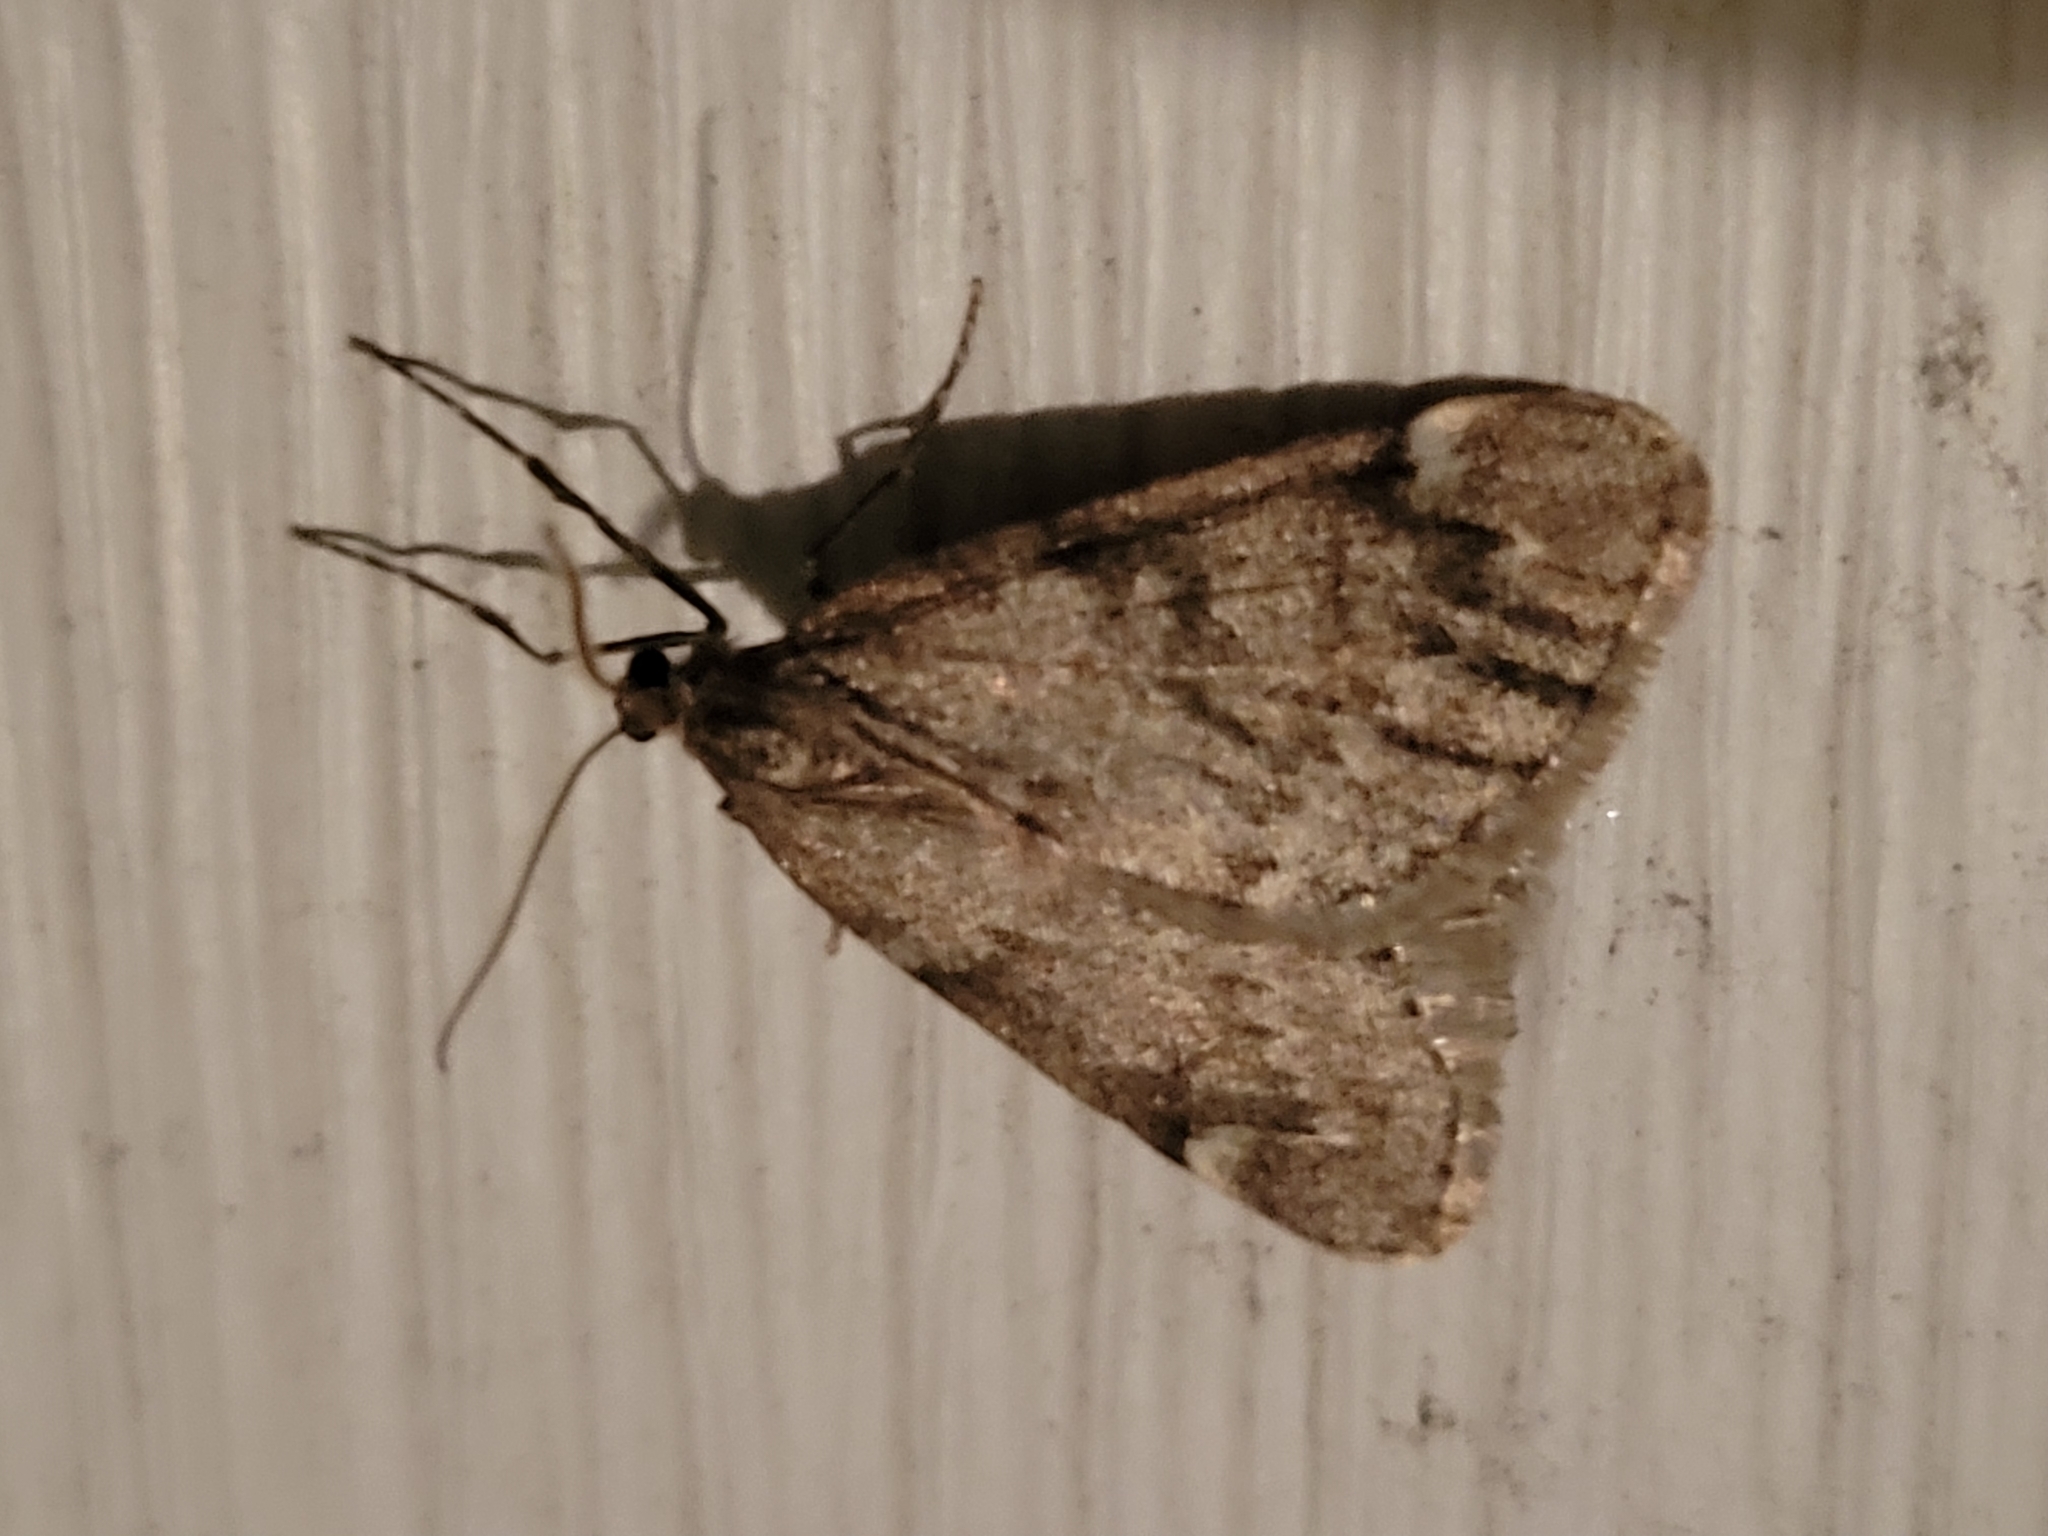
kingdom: Animalia
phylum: Arthropoda
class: Insecta
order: Lepidoptera
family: Geometridae
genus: Alsophila
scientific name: Alsophila pometaria
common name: Fall cankerworm
